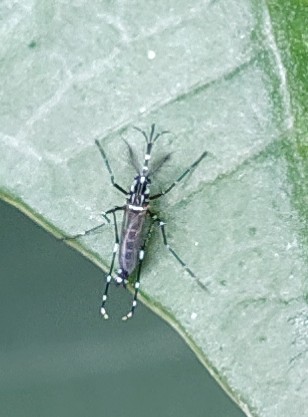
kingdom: Animalia
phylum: Arthropoda
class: Insecta
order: Diptera
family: Culicidae
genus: Aedes
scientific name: Aedes aegypti
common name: Yellow fever mosquito
